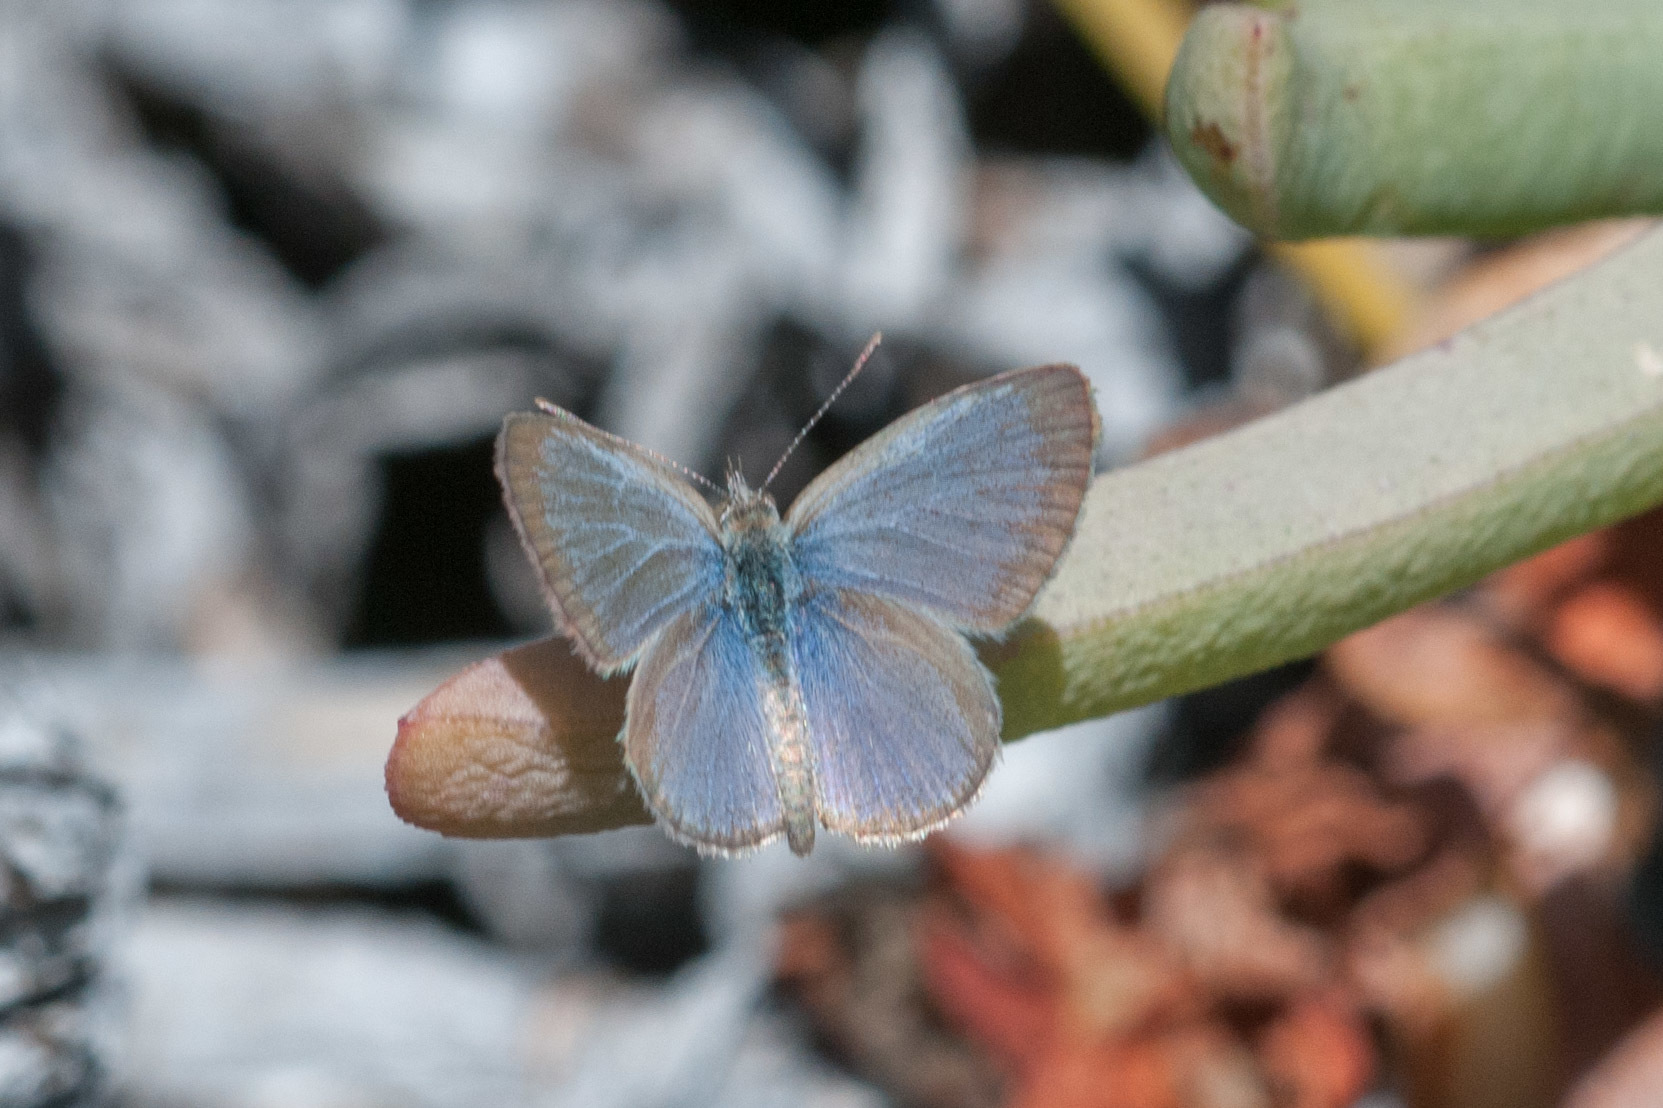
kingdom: Animalia
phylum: Arthropoda
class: Insecta
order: Lepidoptera
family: Lycaenidae
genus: Zizina
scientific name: Zizina labradus
